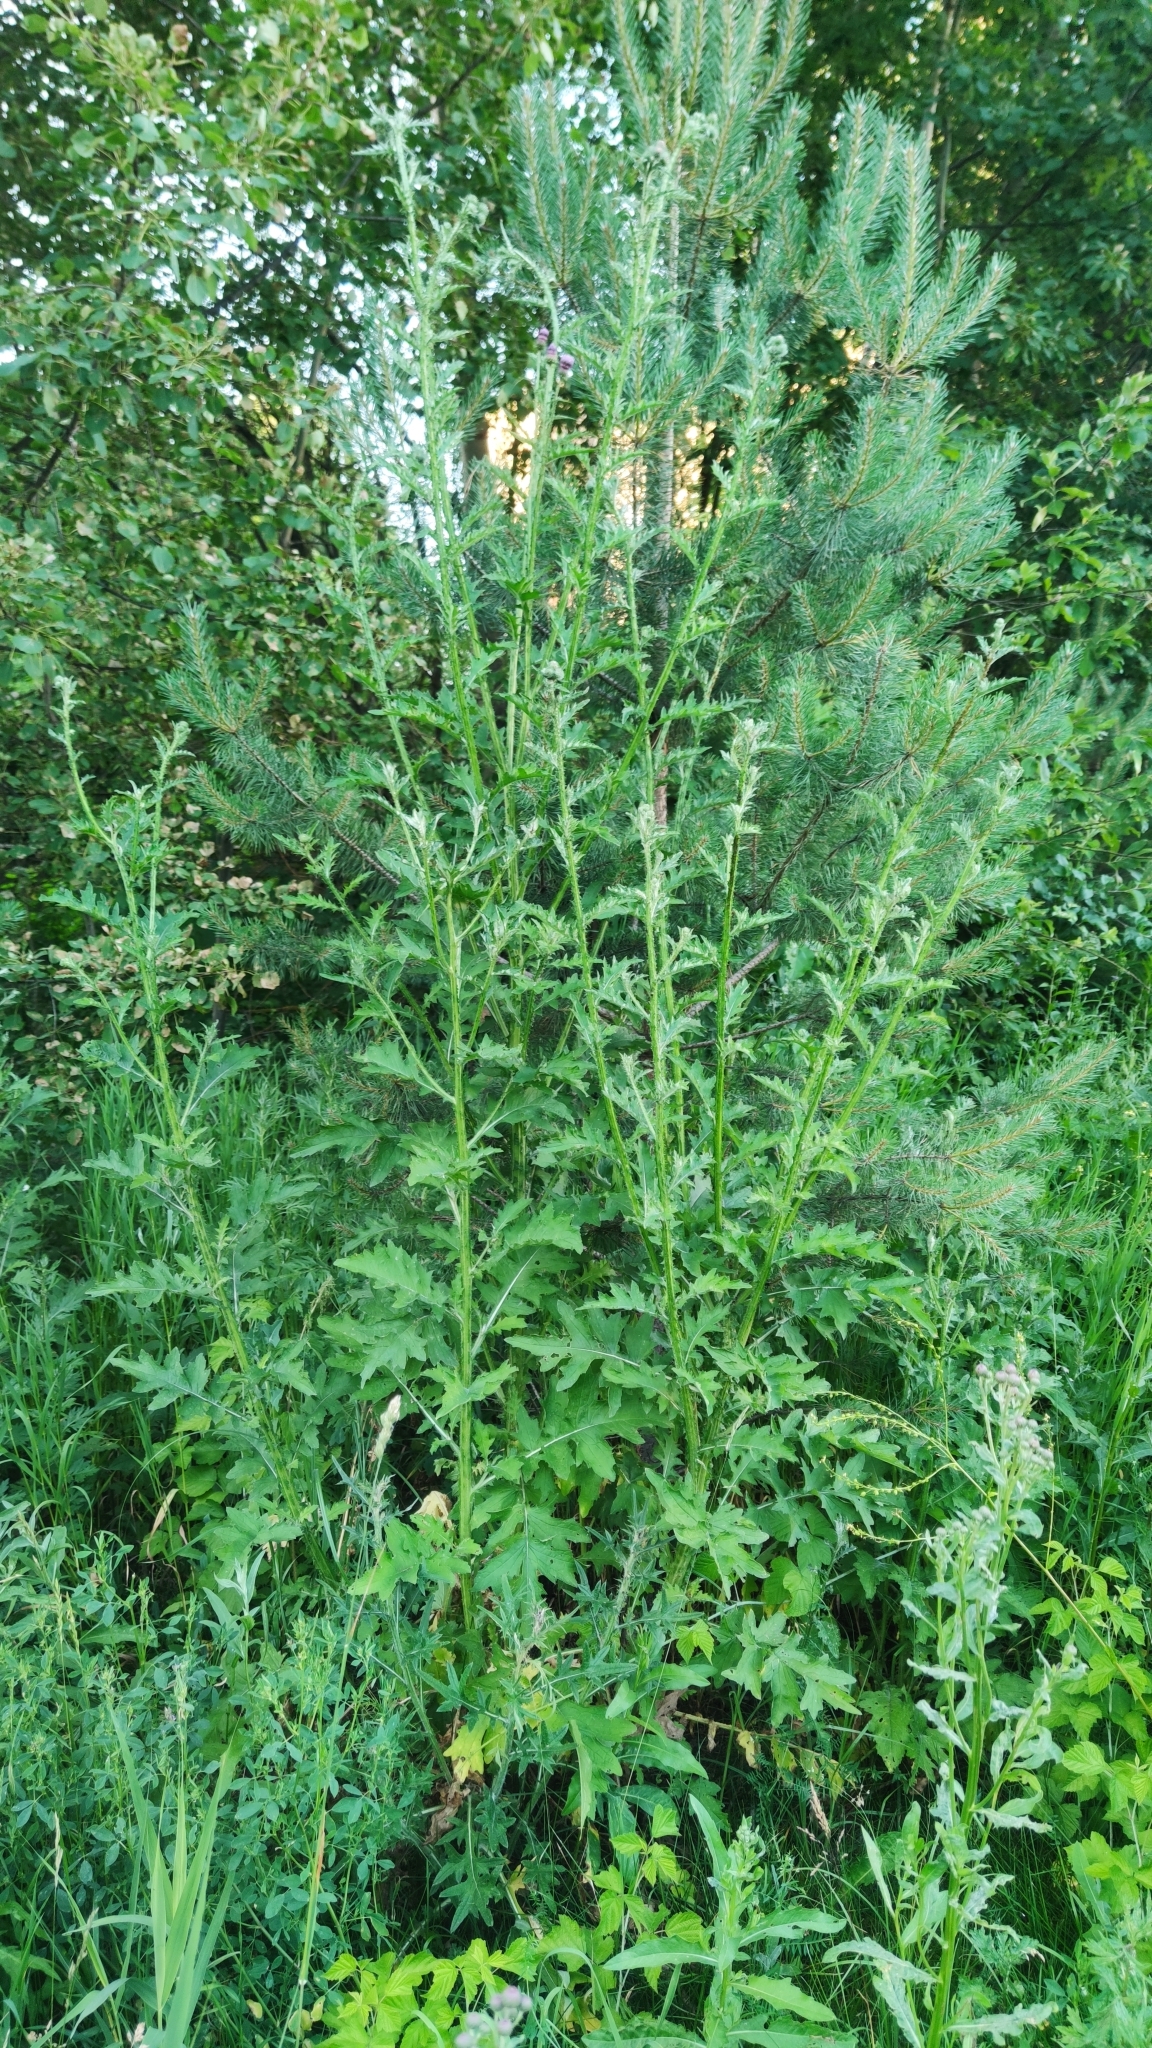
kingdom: Plantae
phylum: Tracheophyta
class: Magnoliopsida
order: Asterales
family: Asteraceae
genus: Carduus
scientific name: Carduus crispus
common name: Welted thistle
